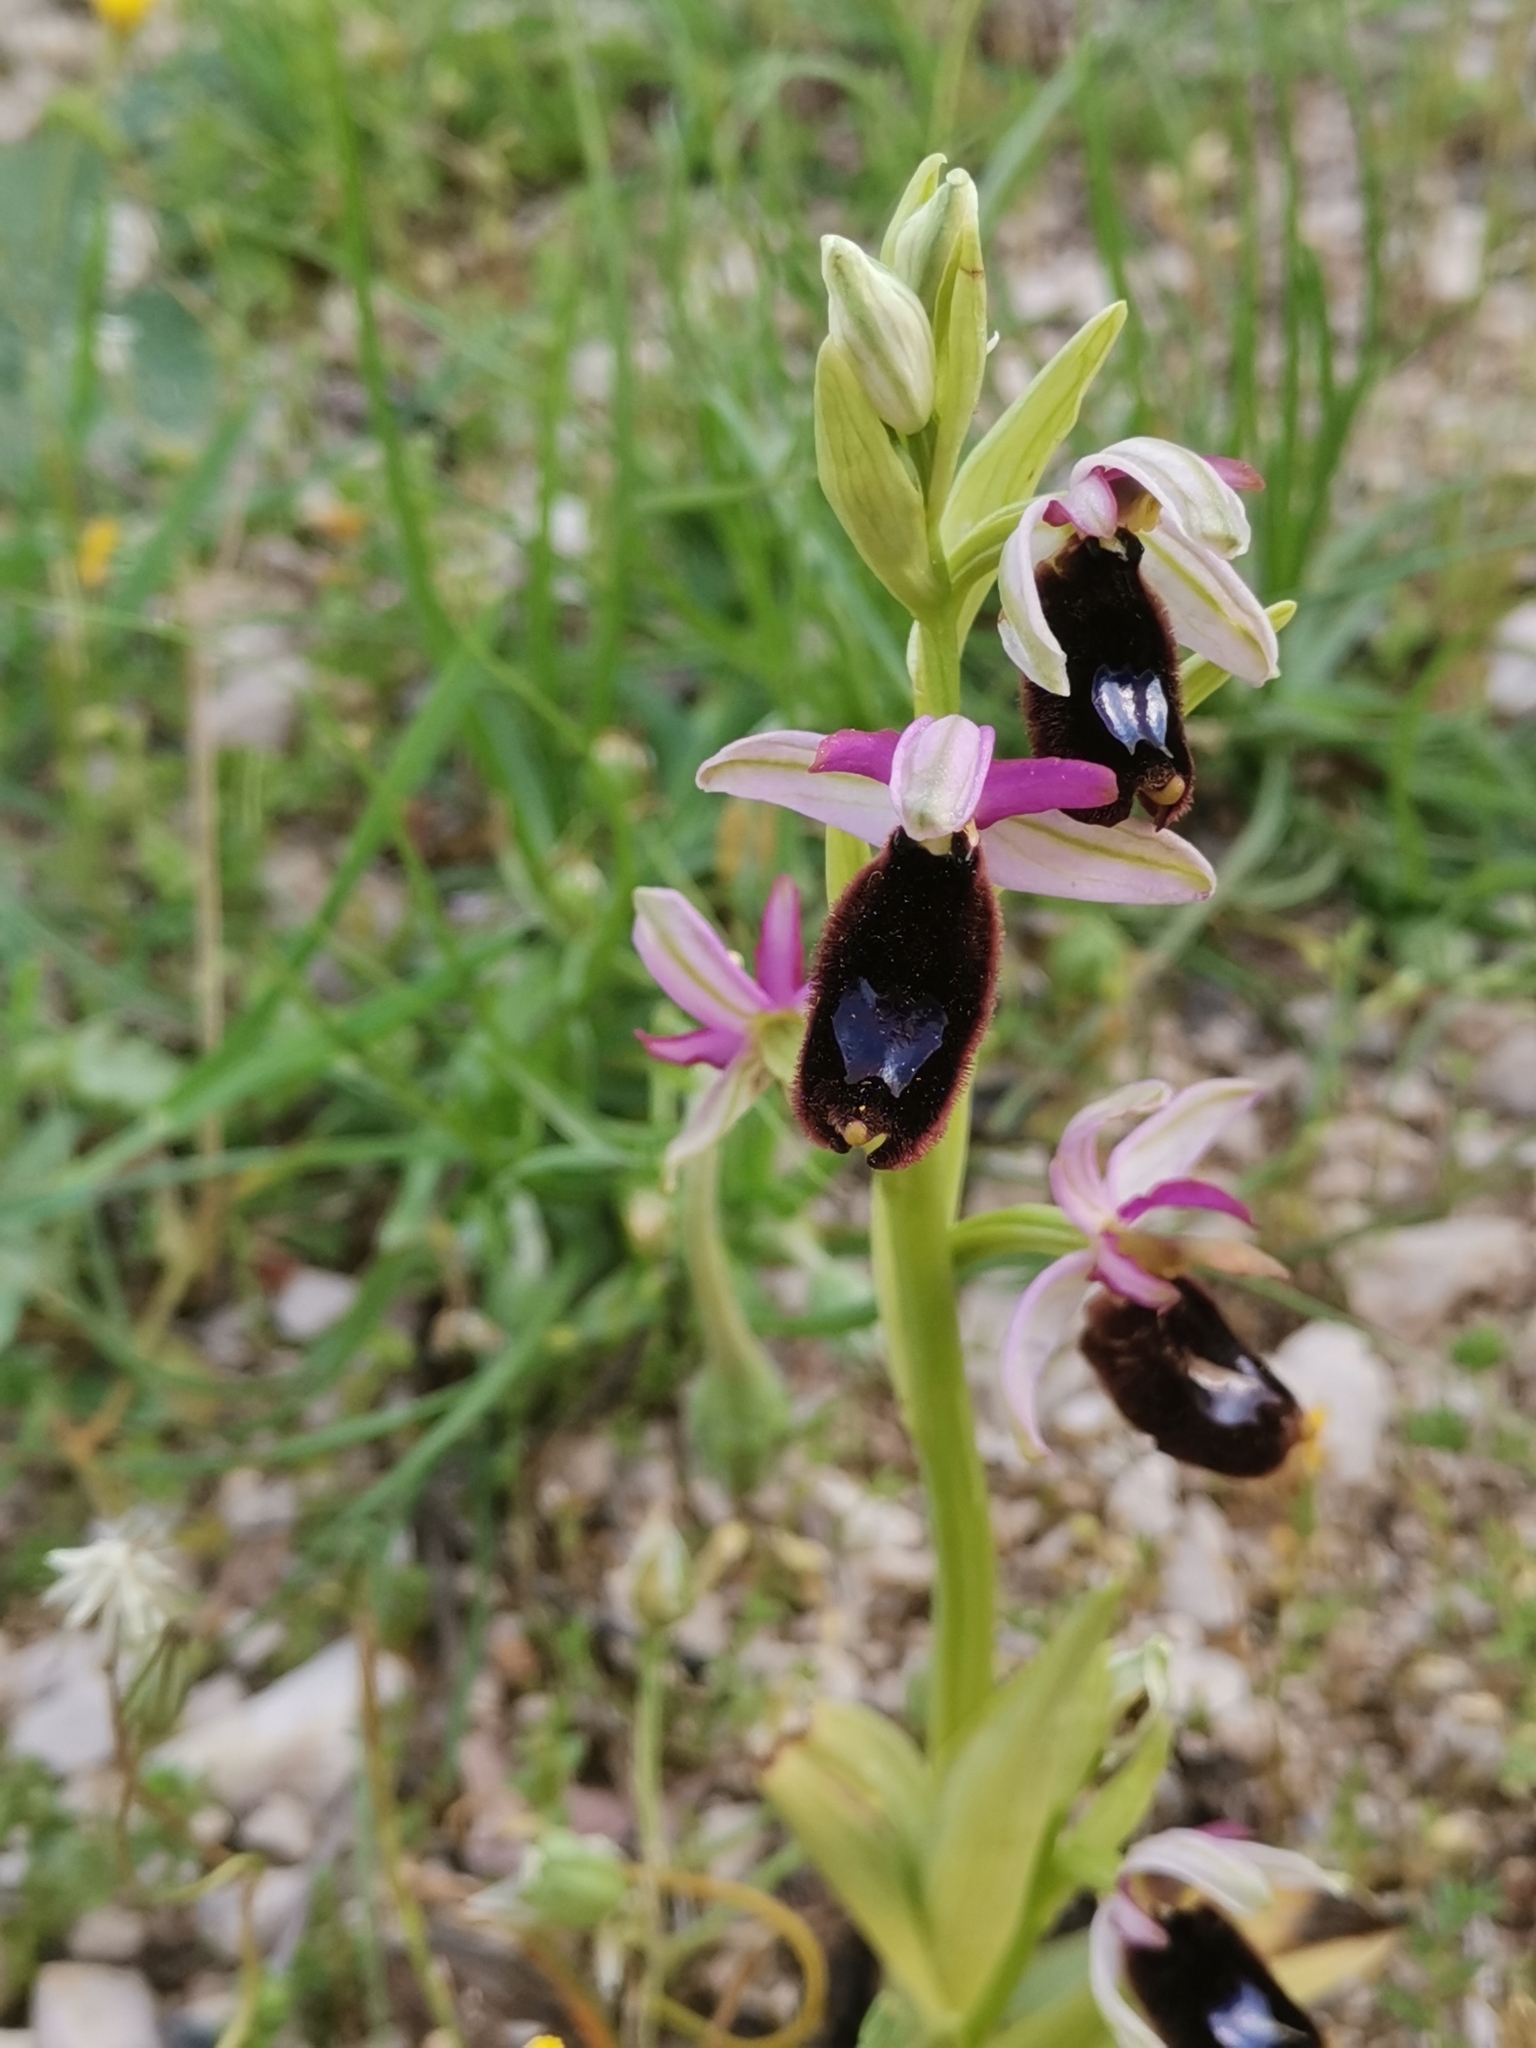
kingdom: Plantae
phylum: Tracheophyta
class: Liliopsida
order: Asparagales
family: Orchidaceae
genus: Ophrys
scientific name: Ophrys bertolonii
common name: Bertoloni's bee orchid
